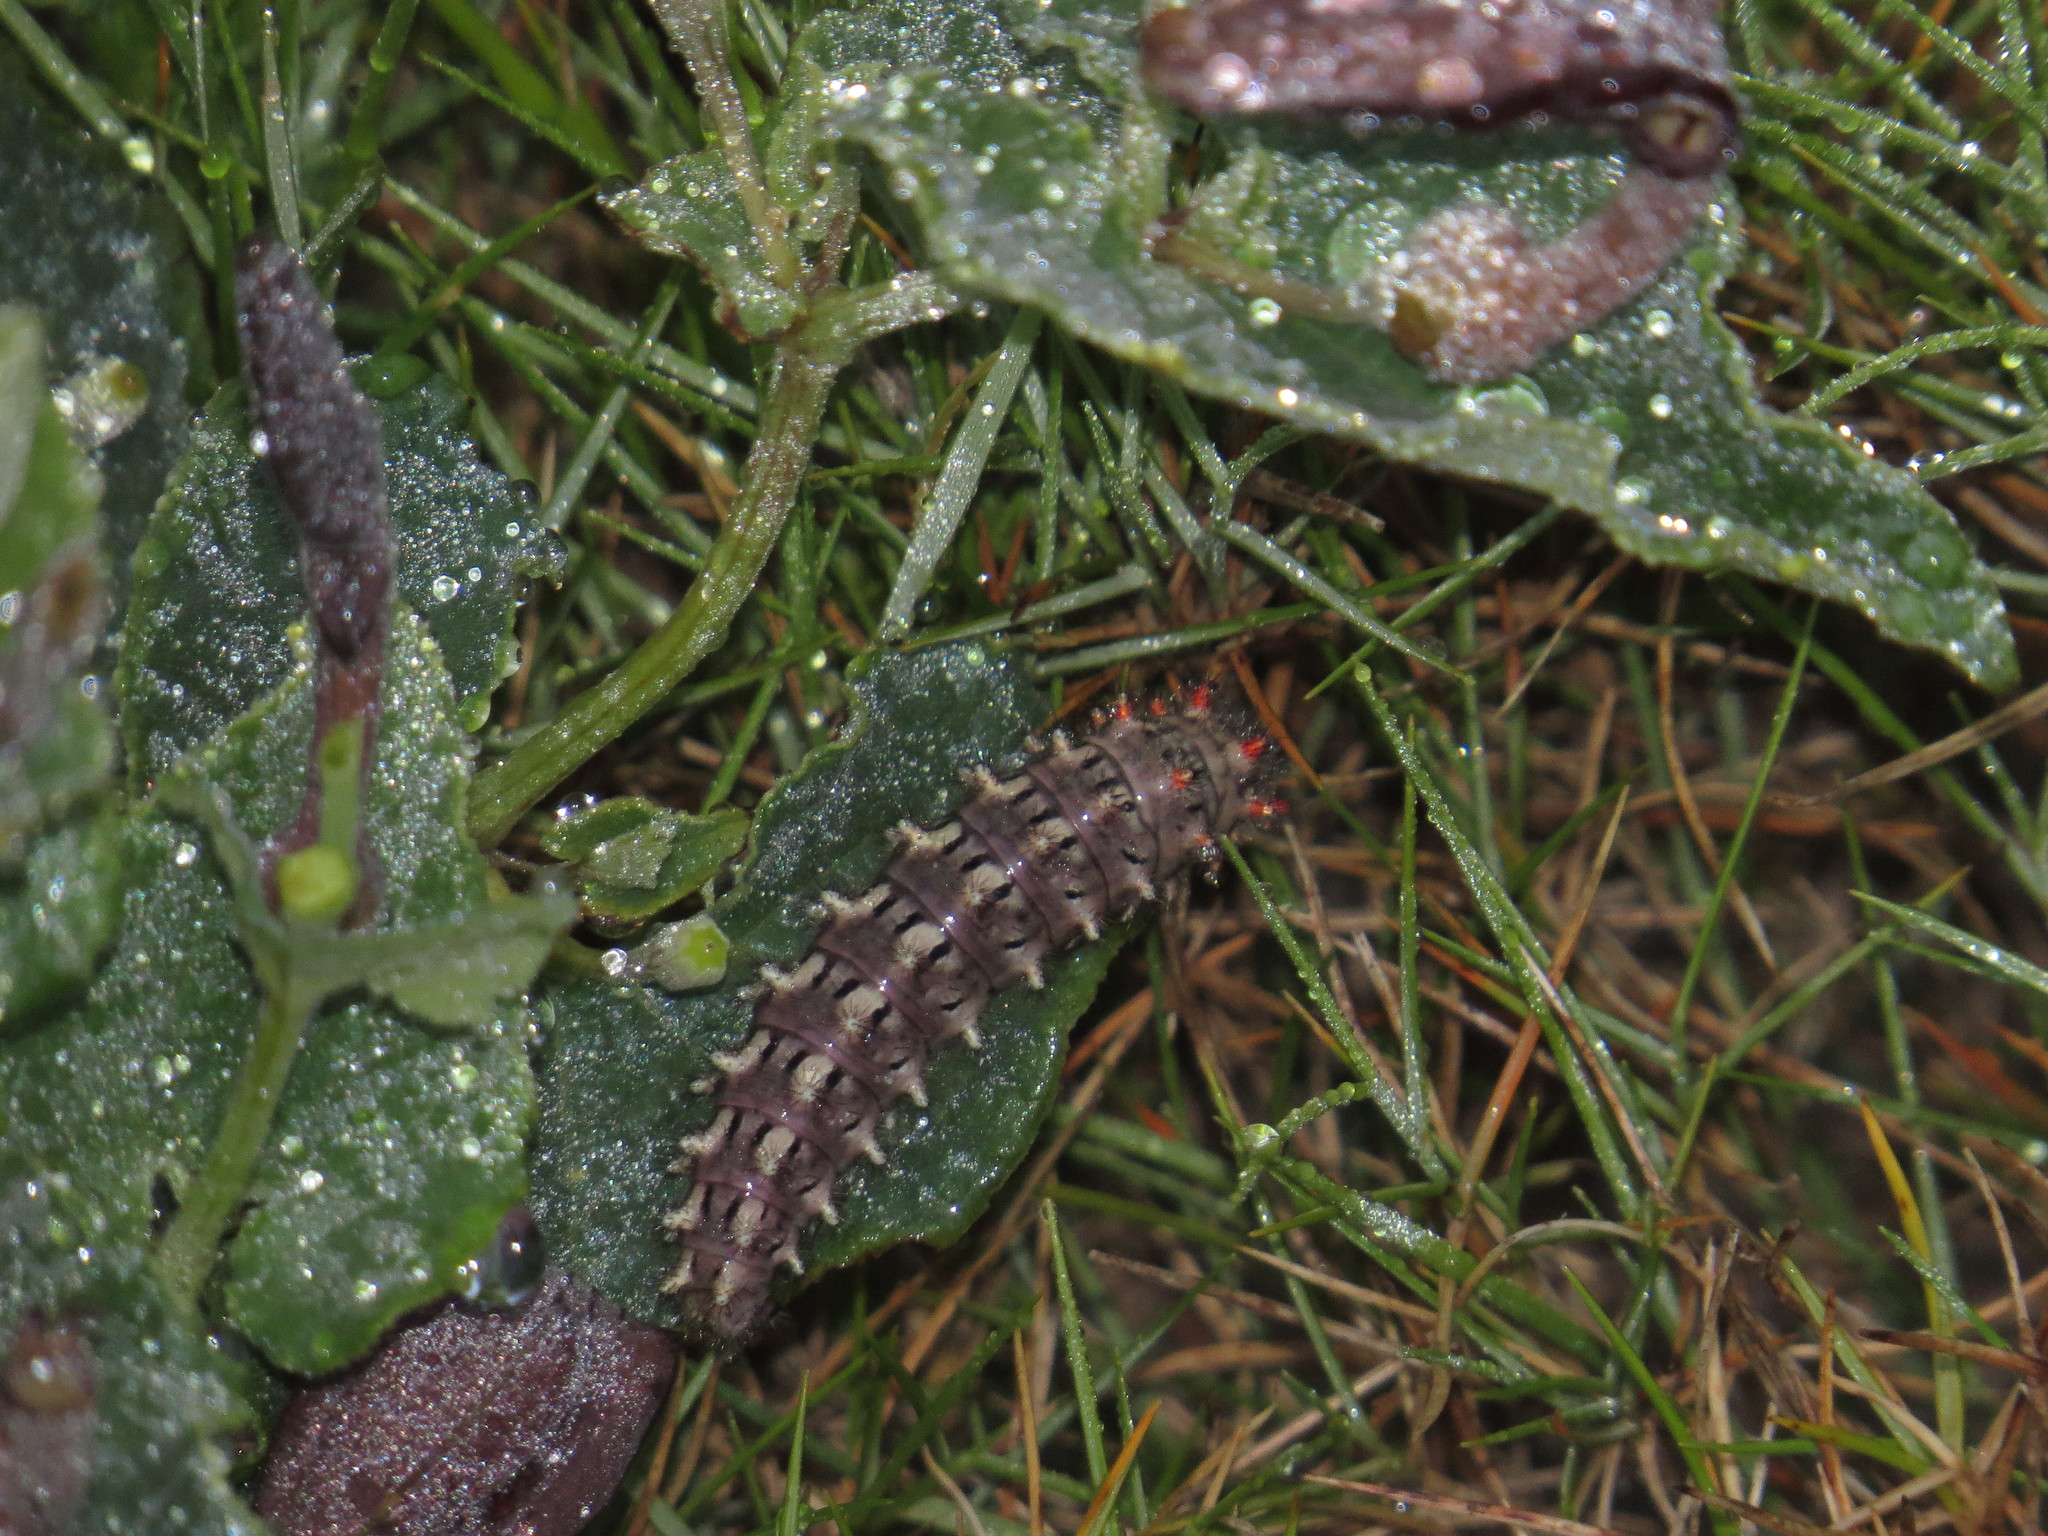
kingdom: Animalia
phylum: Arthropoda
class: Insecta
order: Lepidoptera
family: Papilionidae
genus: Zerynthia
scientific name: Zerynthia rumina
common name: Spanish festoon
